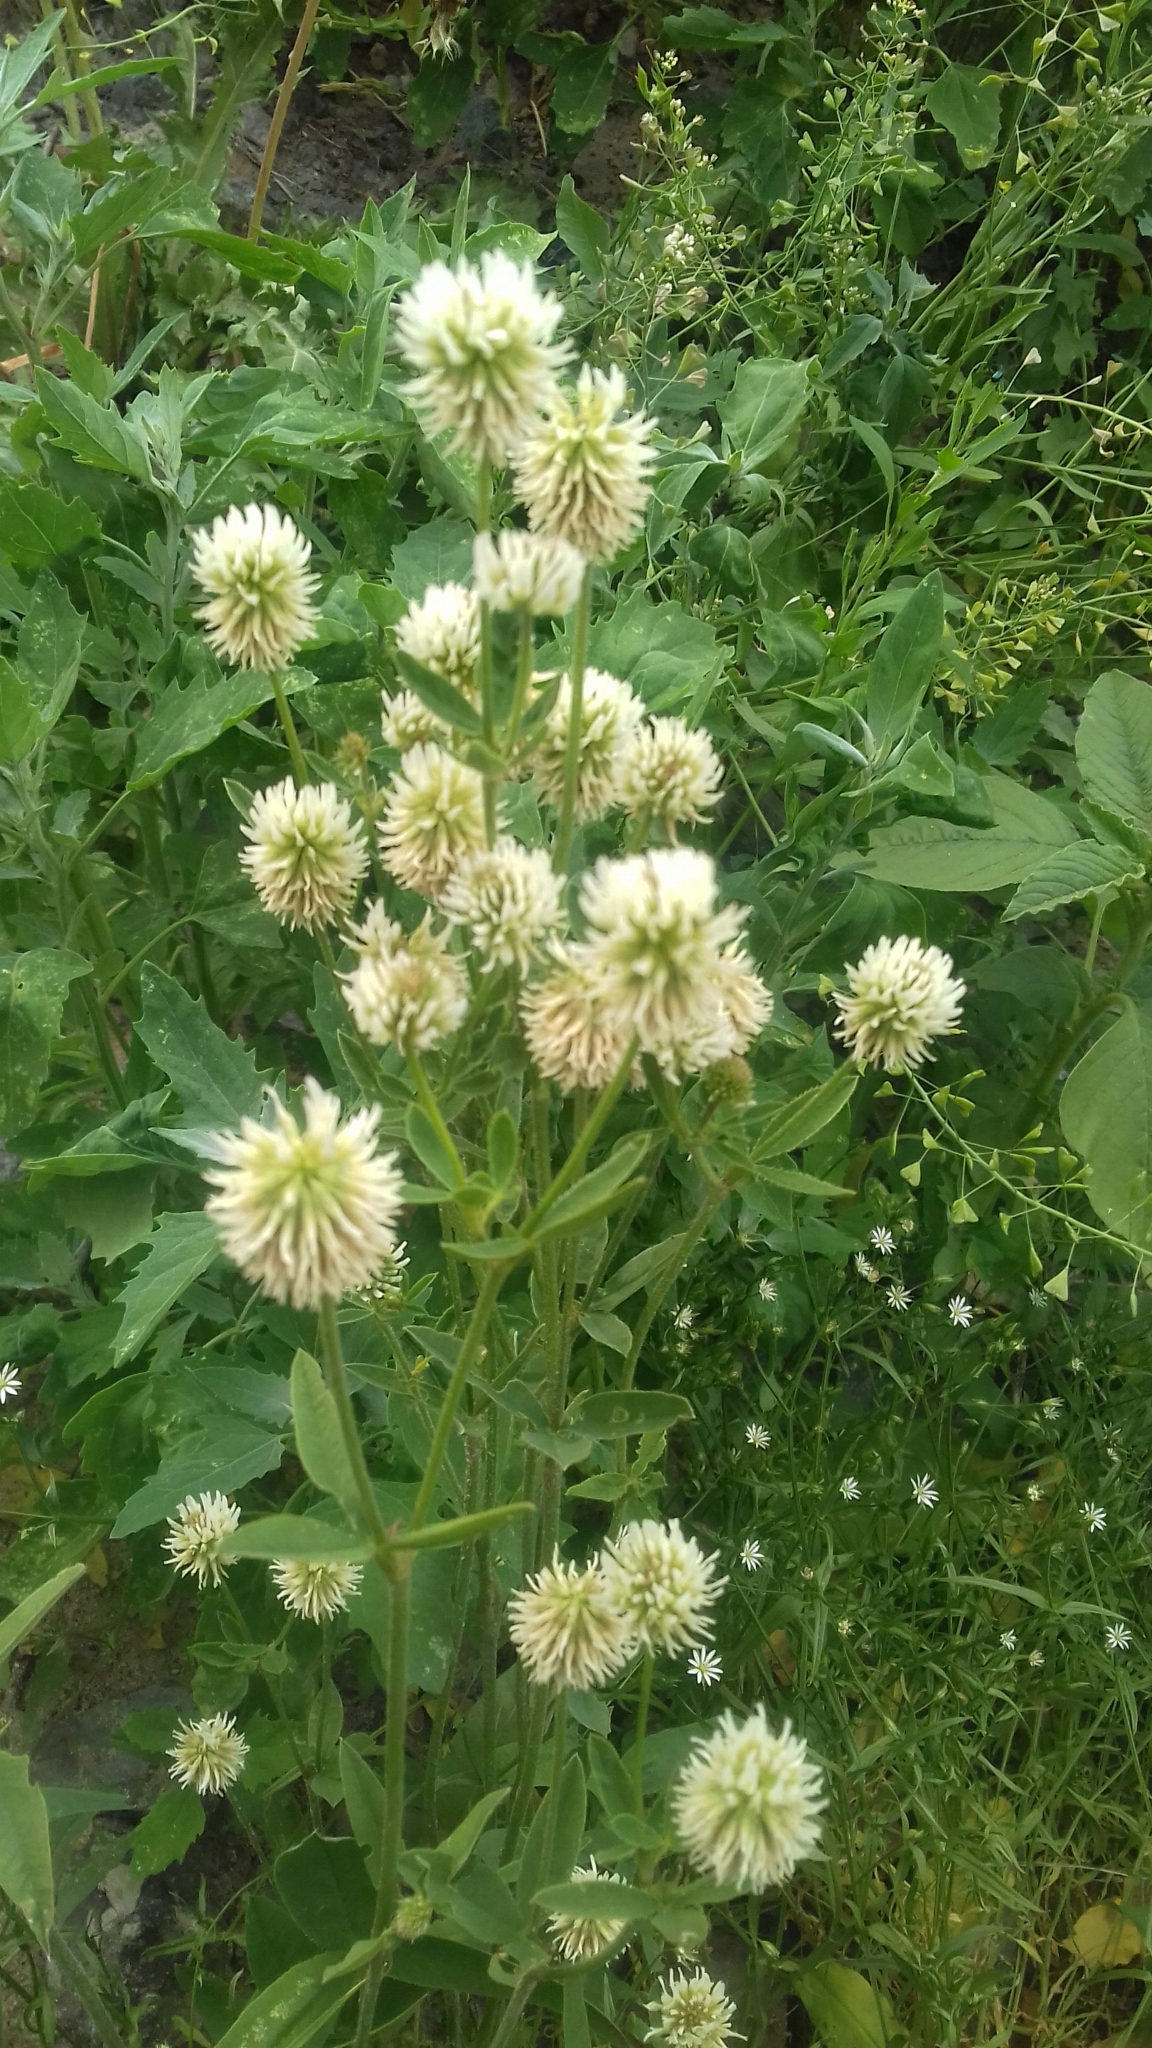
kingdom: Plantae
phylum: Tracheophyta
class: Magnoliopsida
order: Fabales
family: Fabaceae
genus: Trifolium
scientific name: Trifolium montanum
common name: Mountain clover
